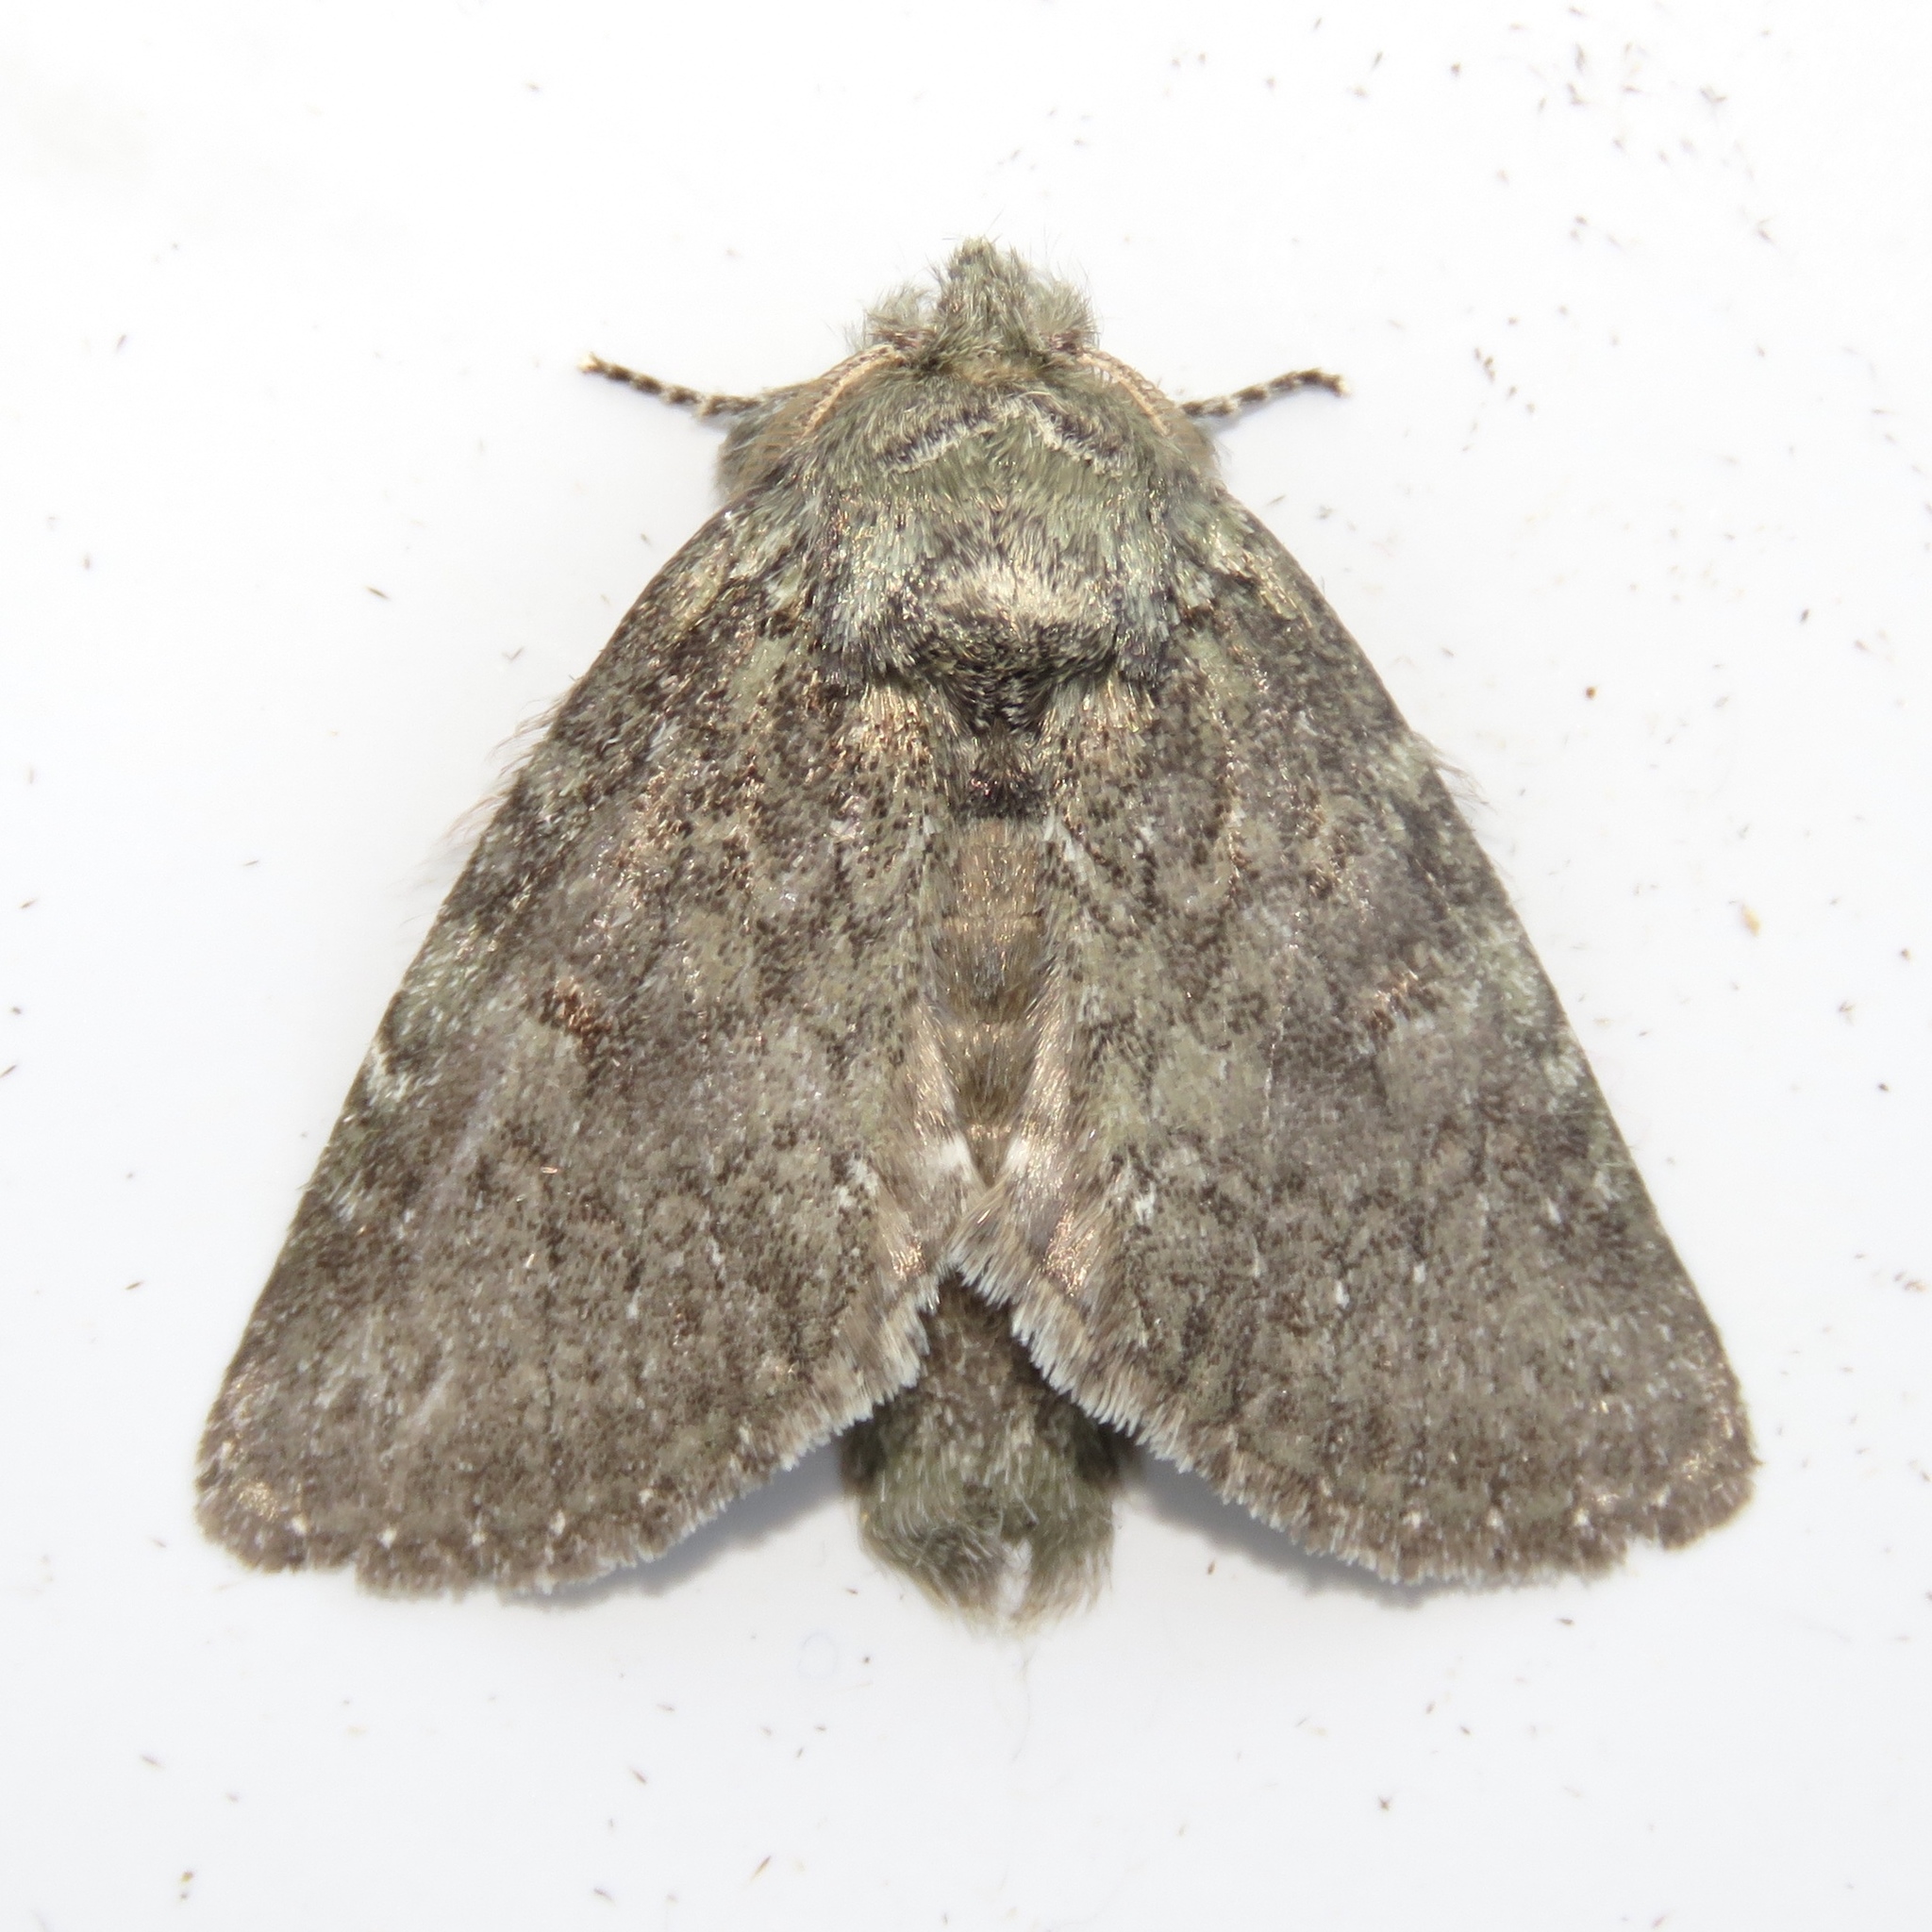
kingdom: Animalia
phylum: Arthropoda
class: Insecta
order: Lepidoptera
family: Notodontidae
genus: Disphragis
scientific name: Disphragis Cecrita guttivitta
